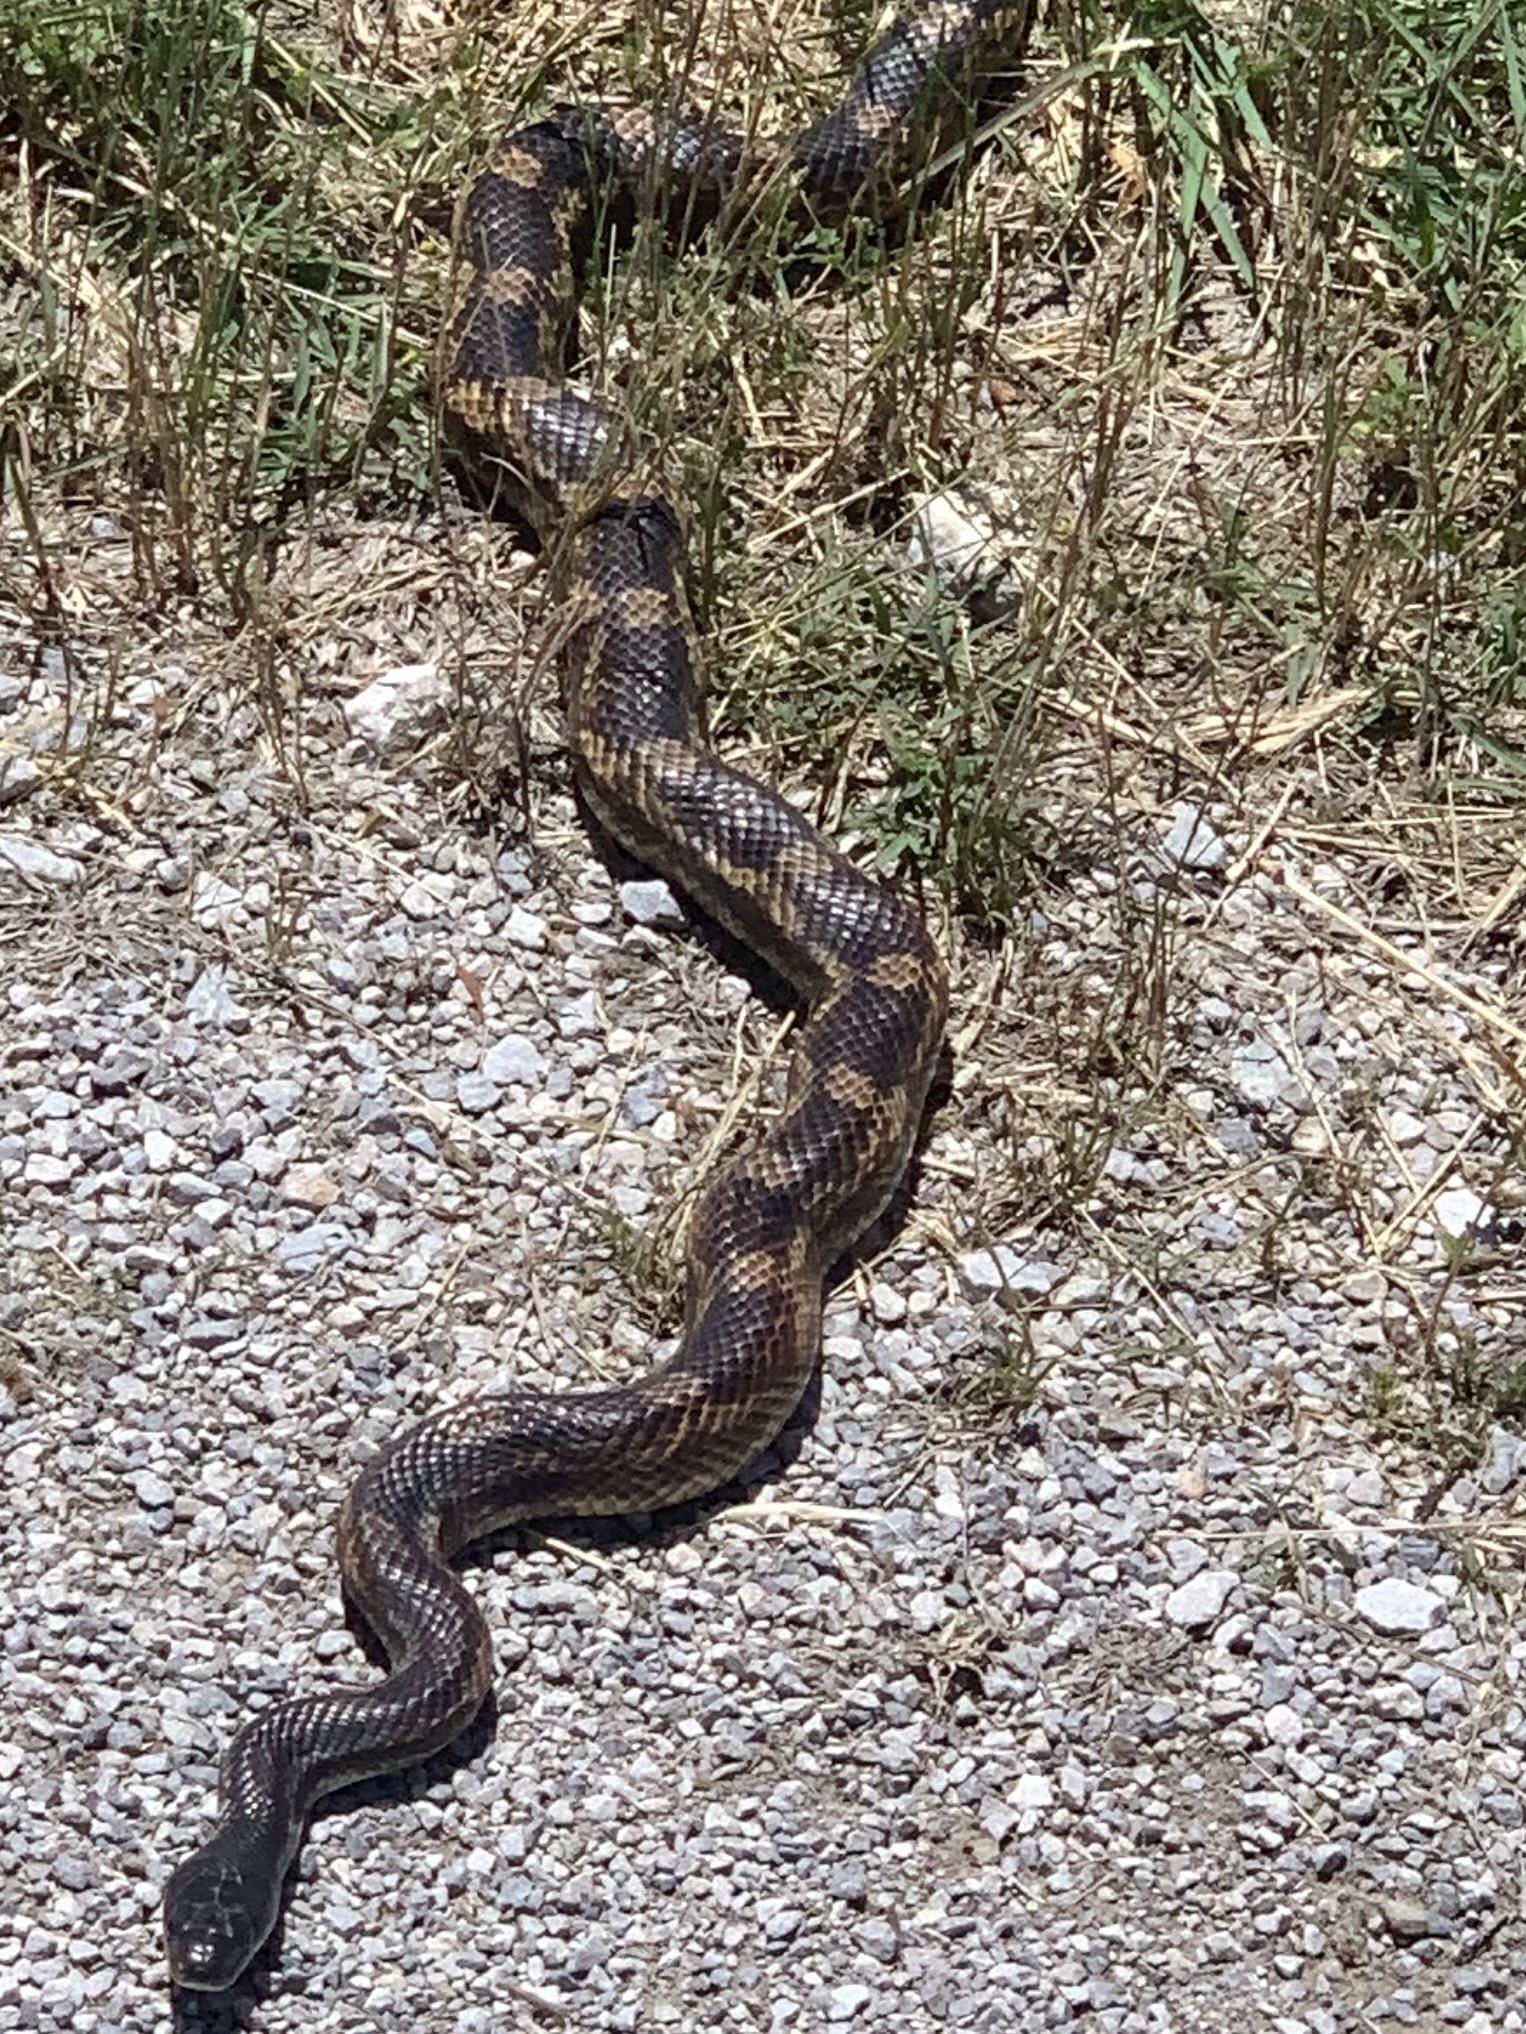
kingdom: Animalia
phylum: Chordata
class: Squamata
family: Colubridae
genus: Pantherophis
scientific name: Pantherophis obsoletus
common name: Black rat snake
